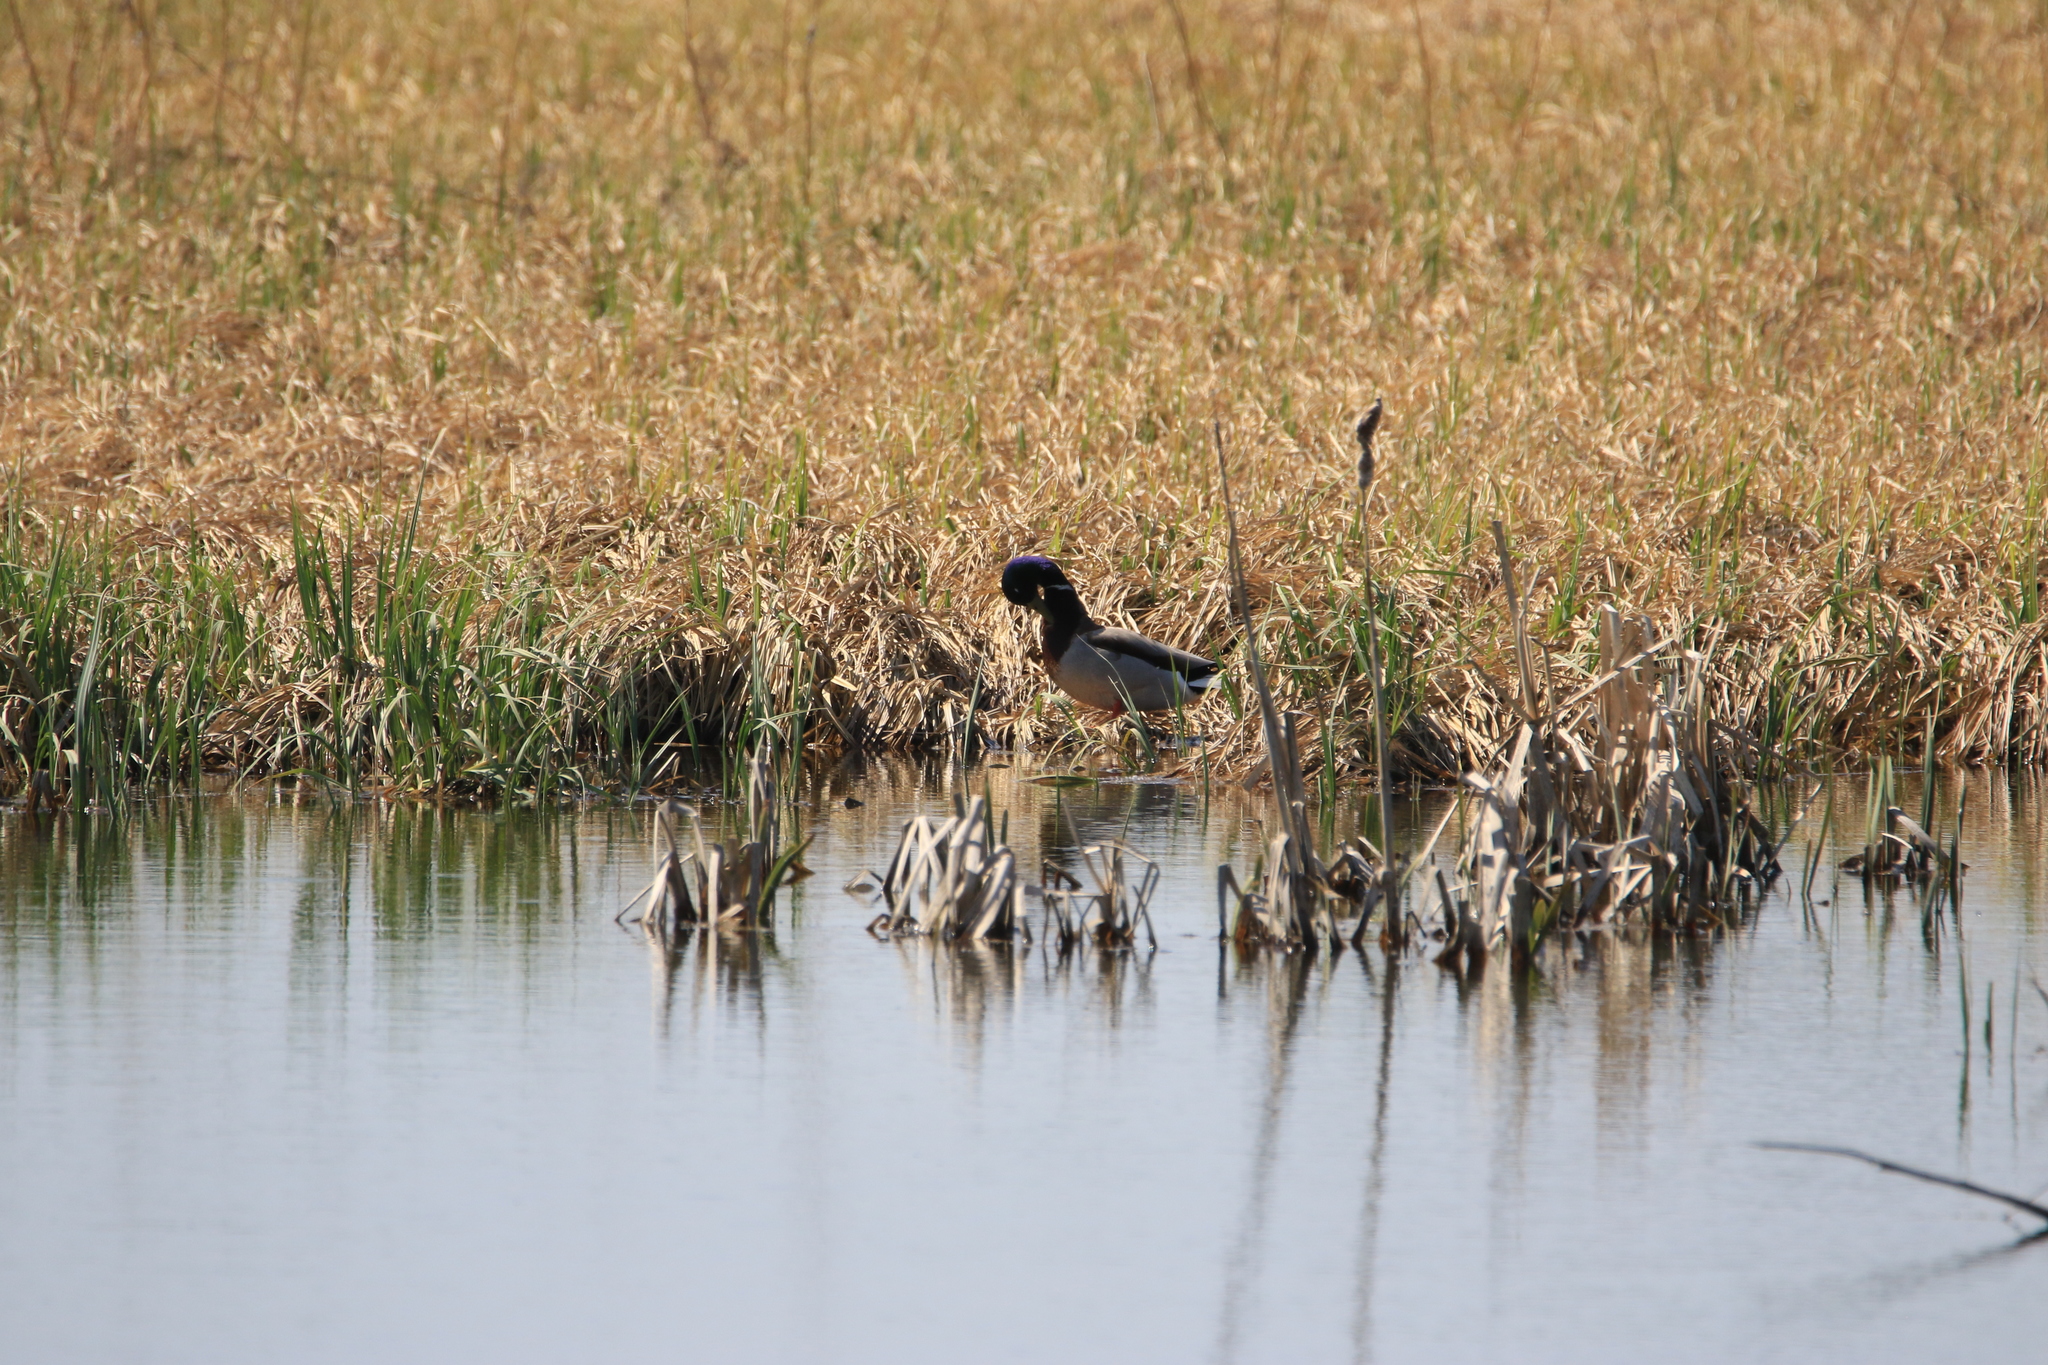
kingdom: Animalia
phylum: Chordata
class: Aves
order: Anseriformes
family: Anatidae
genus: Anas
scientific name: Anas platyrhynchos
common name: Mallard
